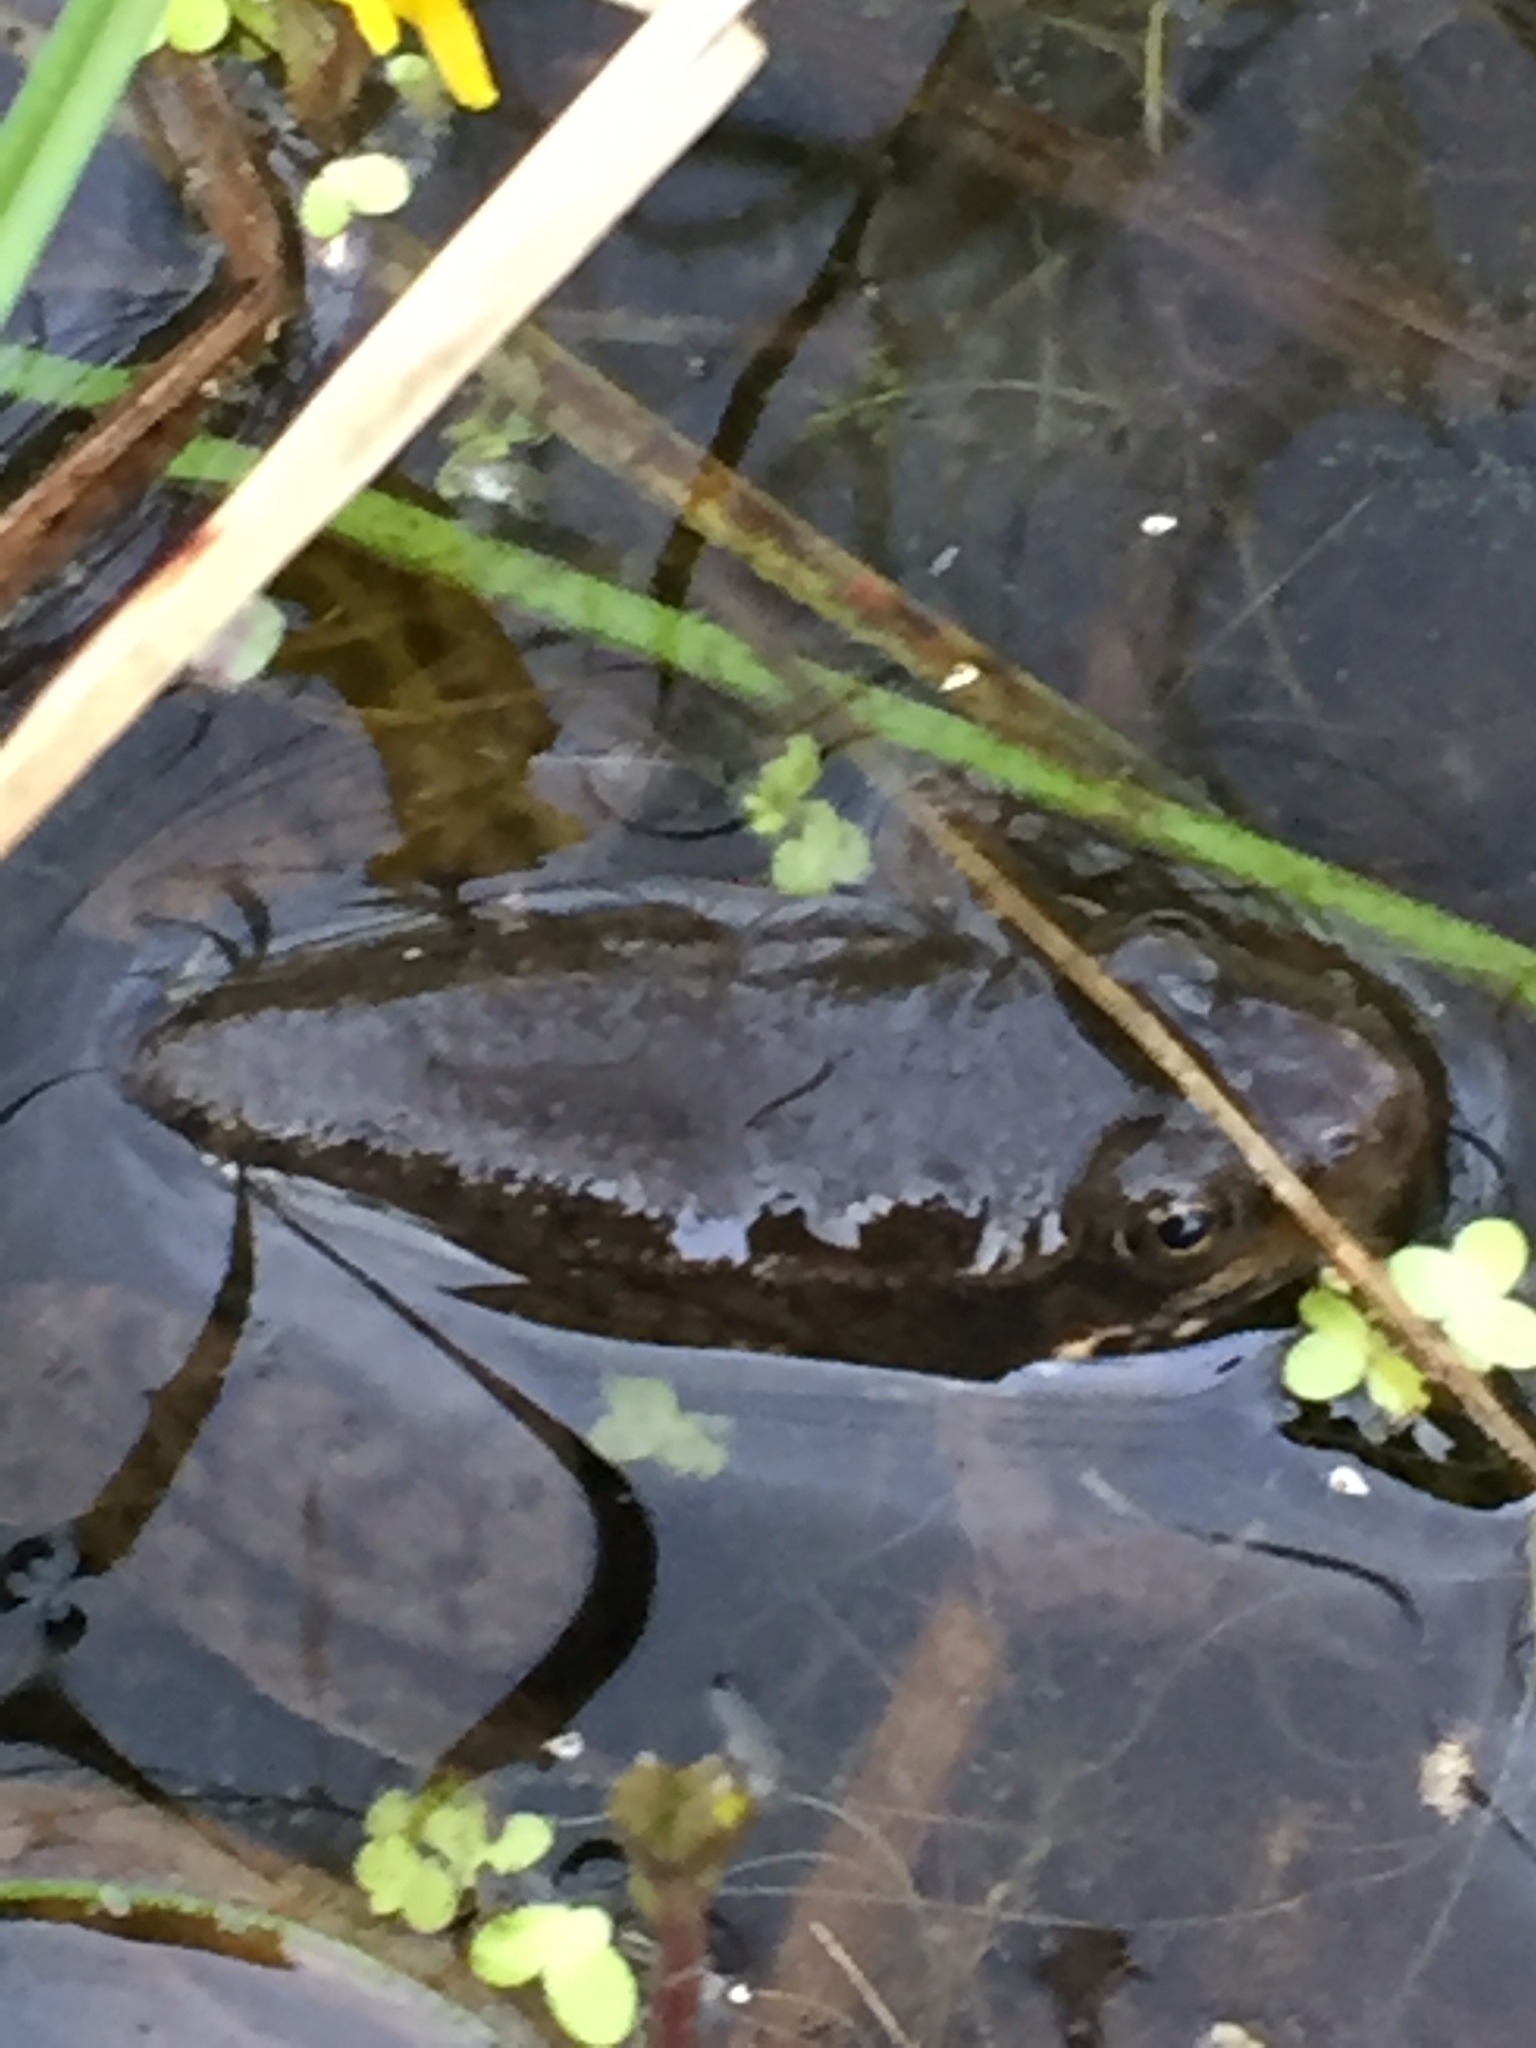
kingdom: Animalia
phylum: Chordata
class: Amphibia
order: Anura
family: Ranidae
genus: Lithobates
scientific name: Lithobates clamitans
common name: Green frog
